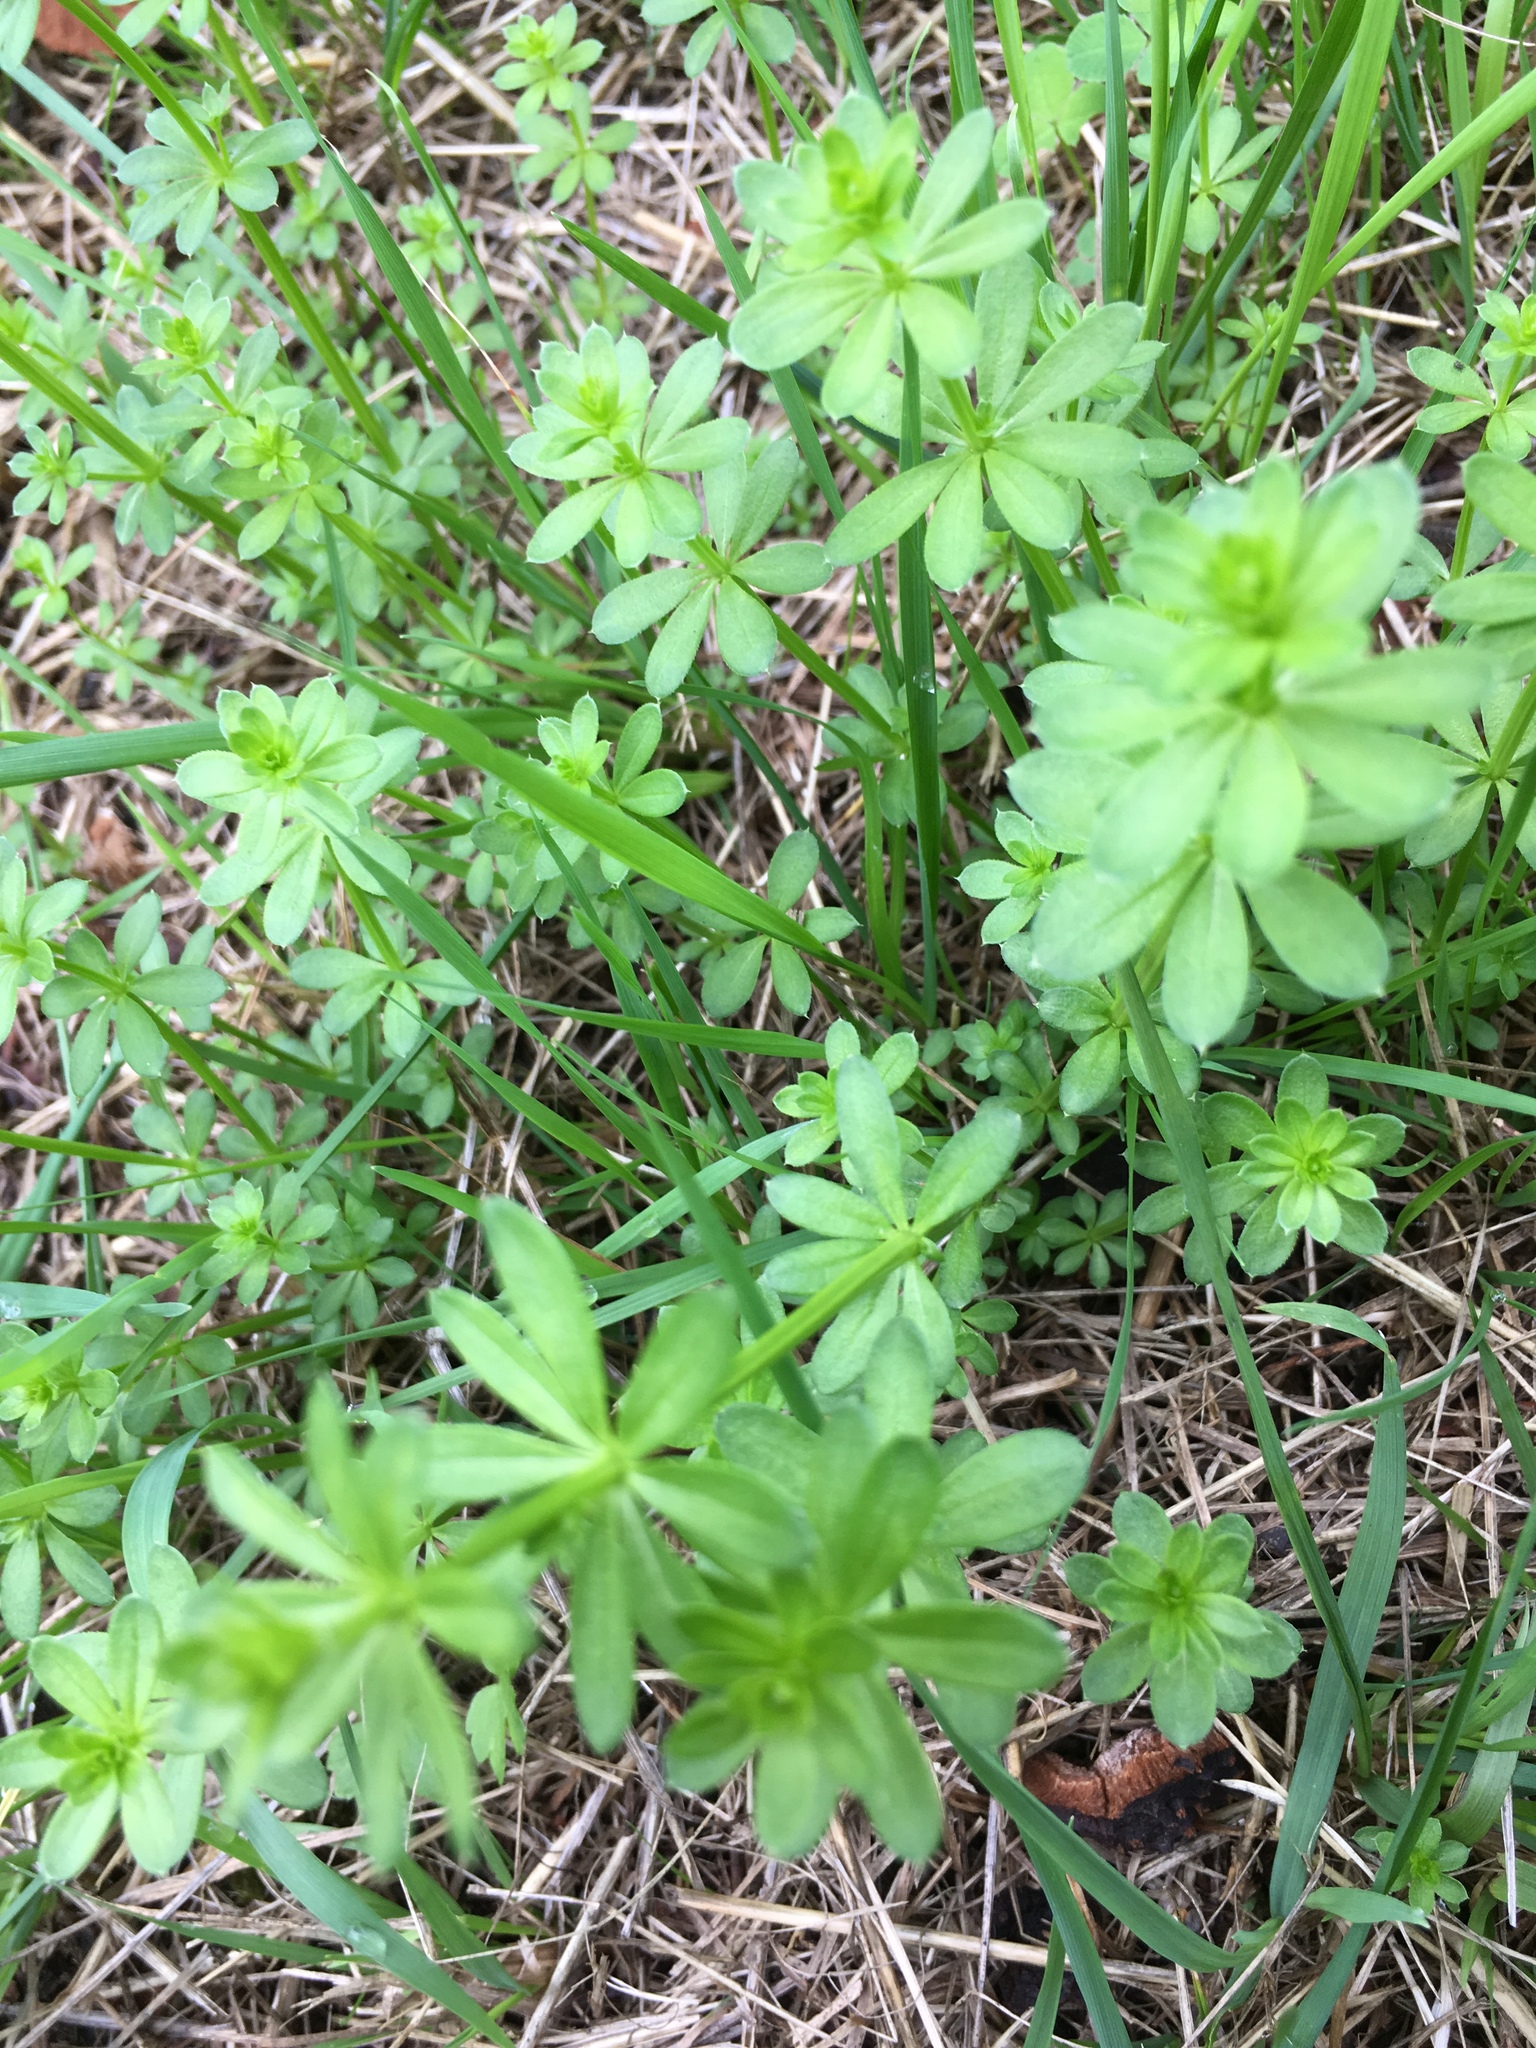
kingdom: Plantae
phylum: Tracheophyta
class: Magnoliopsida
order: Gentianales
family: Rubiaceae
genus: Galium
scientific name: Galium mollugo
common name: Hedge bedstraw
